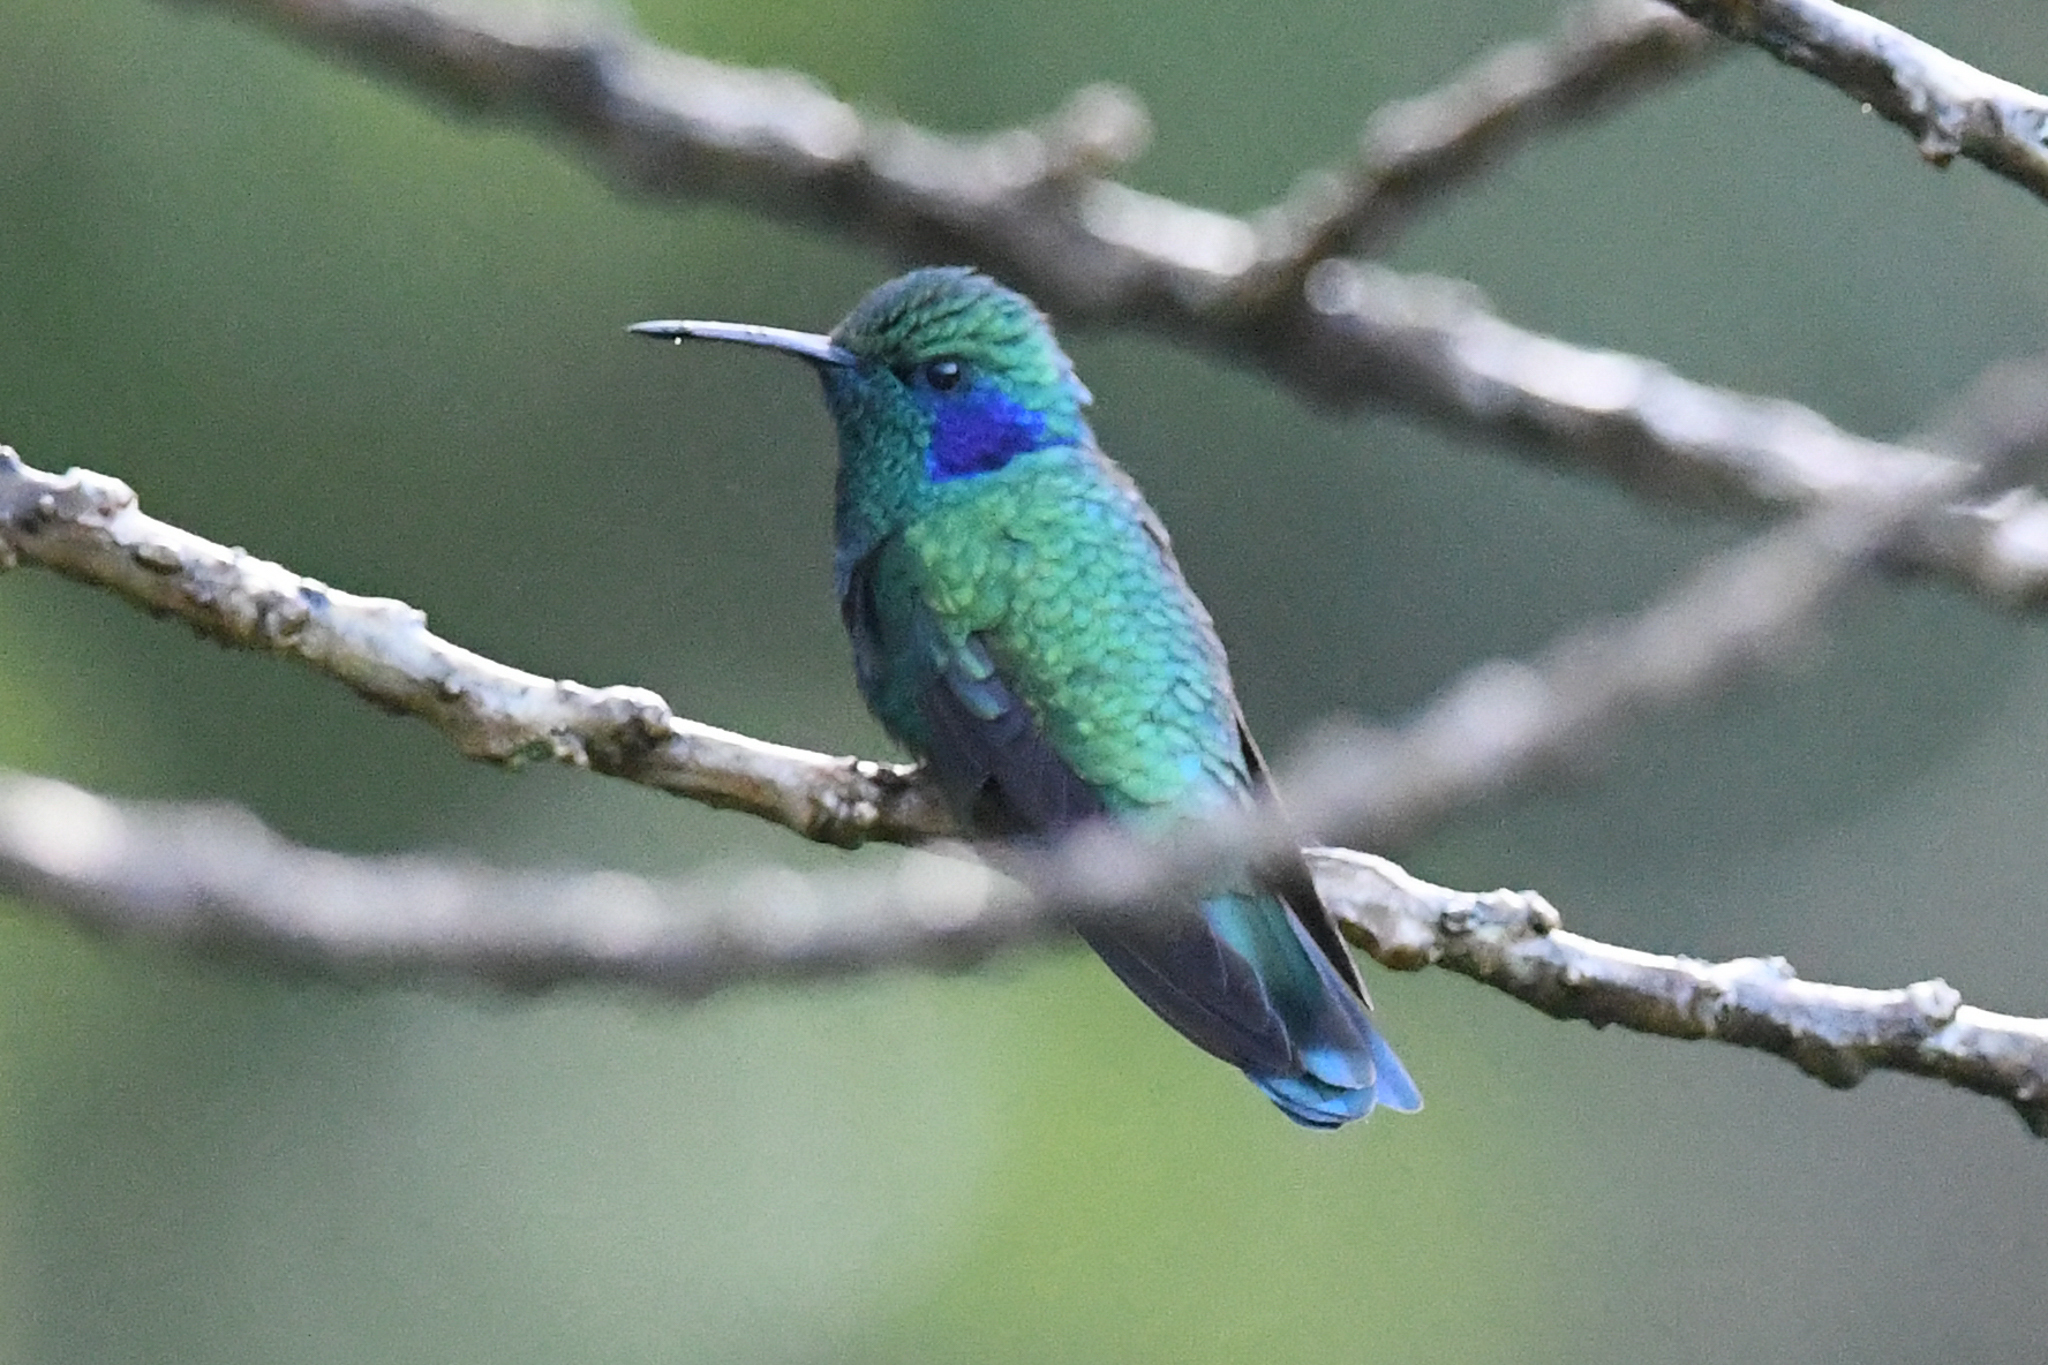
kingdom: Animalia
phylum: Chordata
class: Aves
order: Apodiformes
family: Trochilidae
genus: Colibri
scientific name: Colibri cyanotus
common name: Lesser violetear
